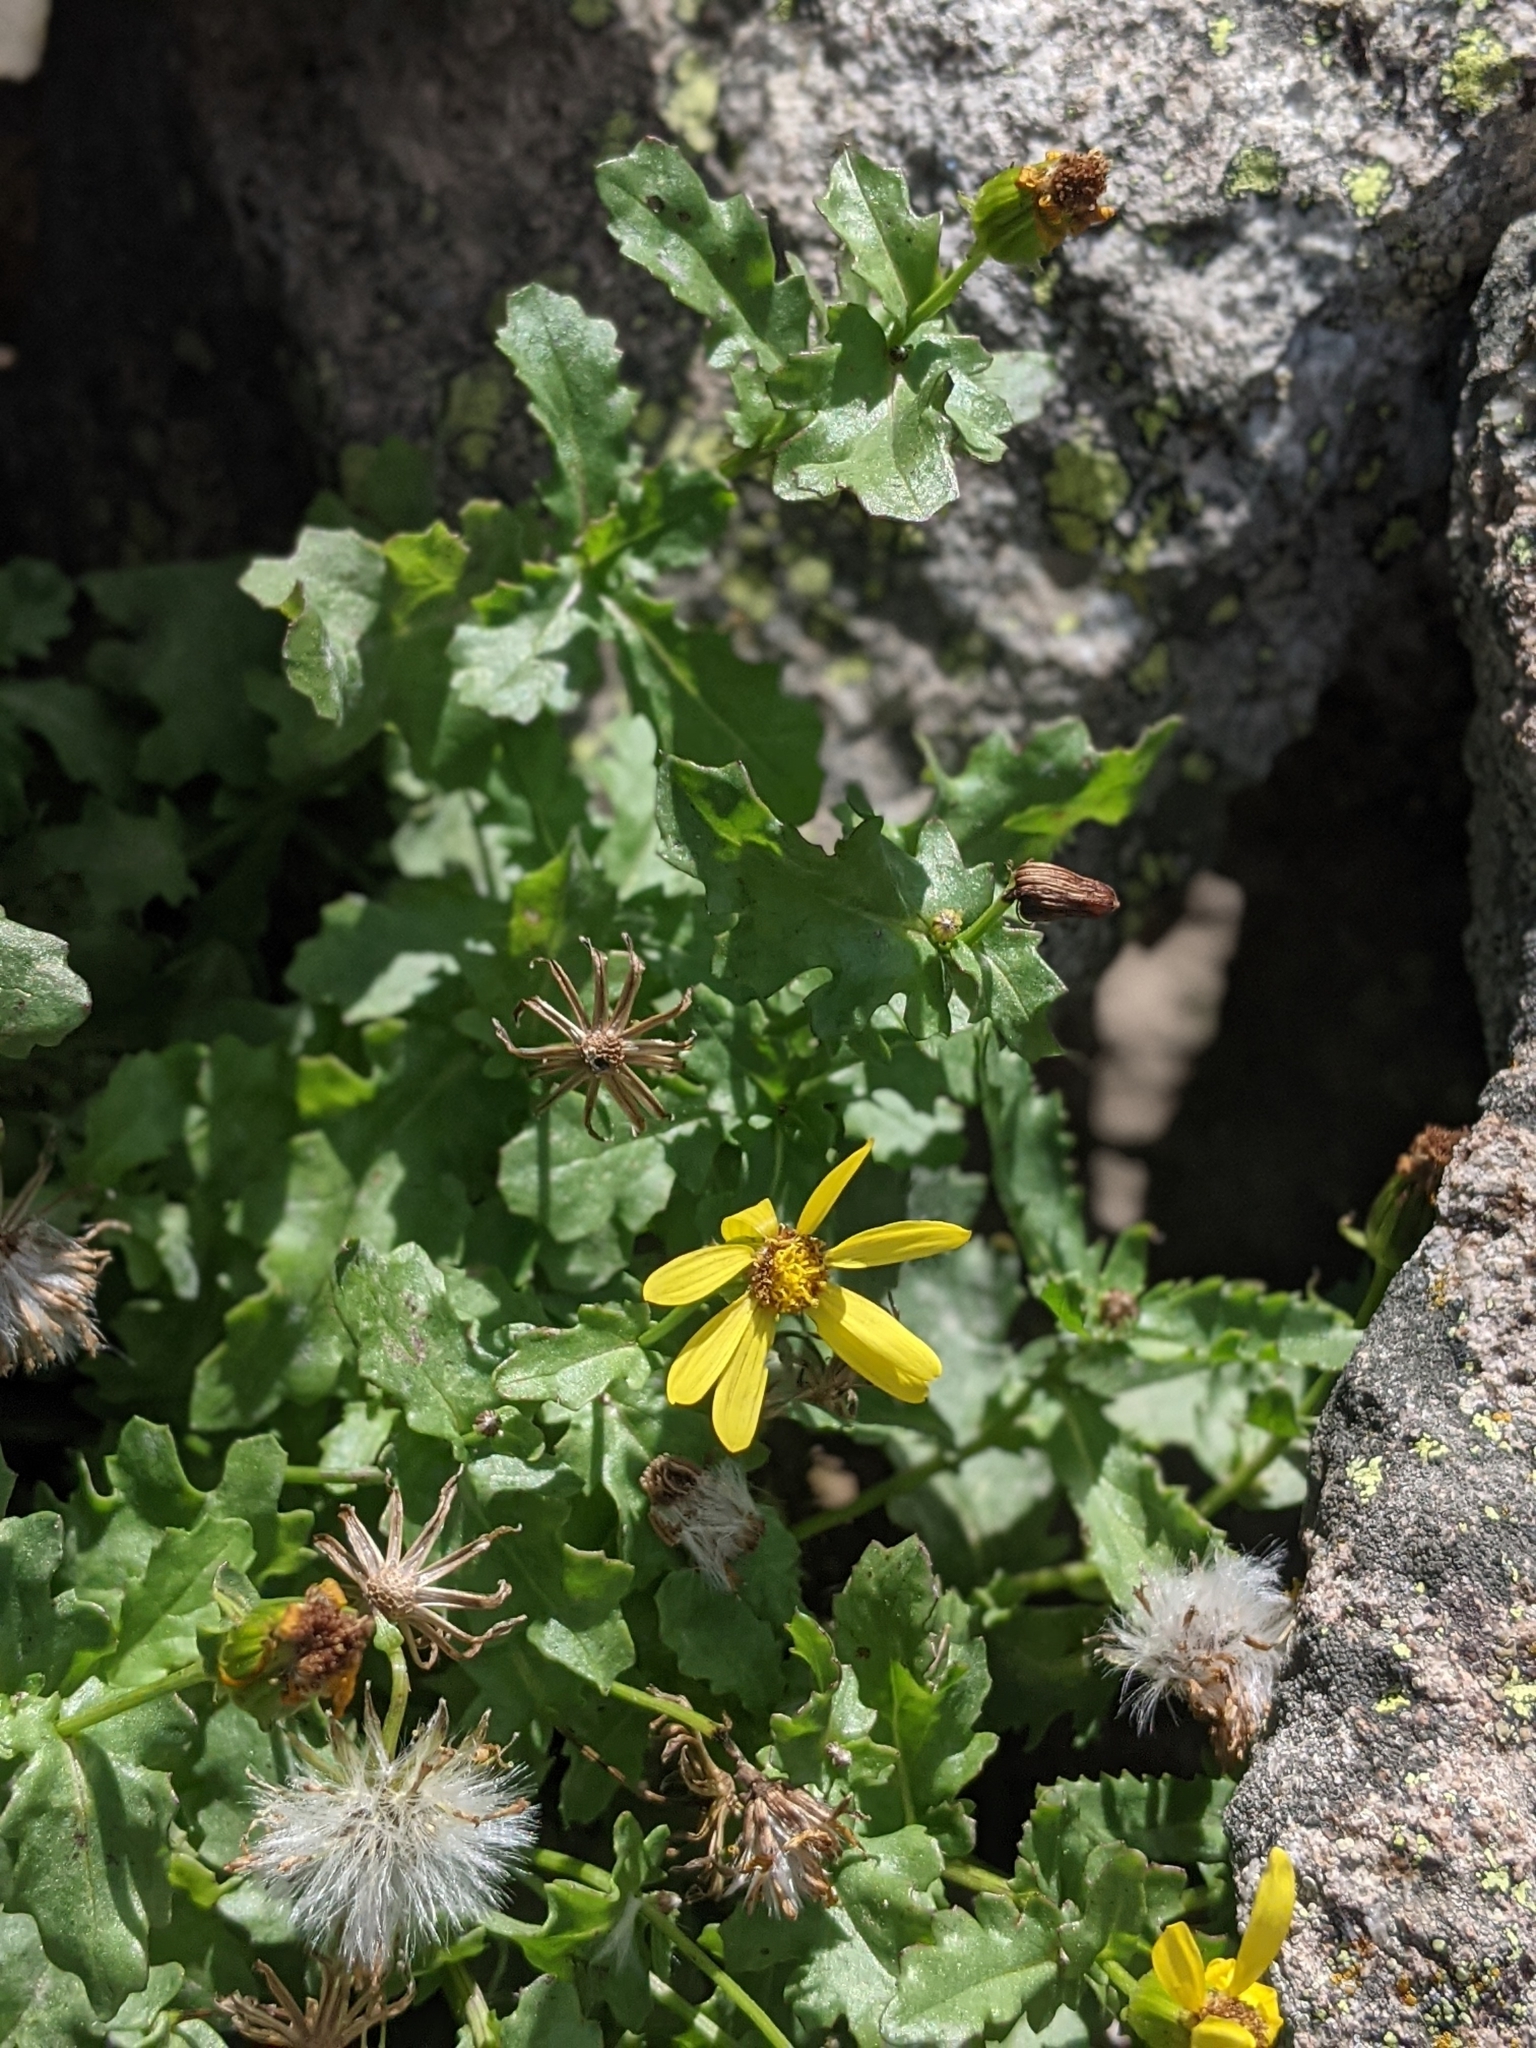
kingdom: Plantae
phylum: Tracheophyta
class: Magnoliopsida
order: Asterales
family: Asteraceae
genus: Senecio
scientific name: Senecio fremontii
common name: Fremont's groundsel
